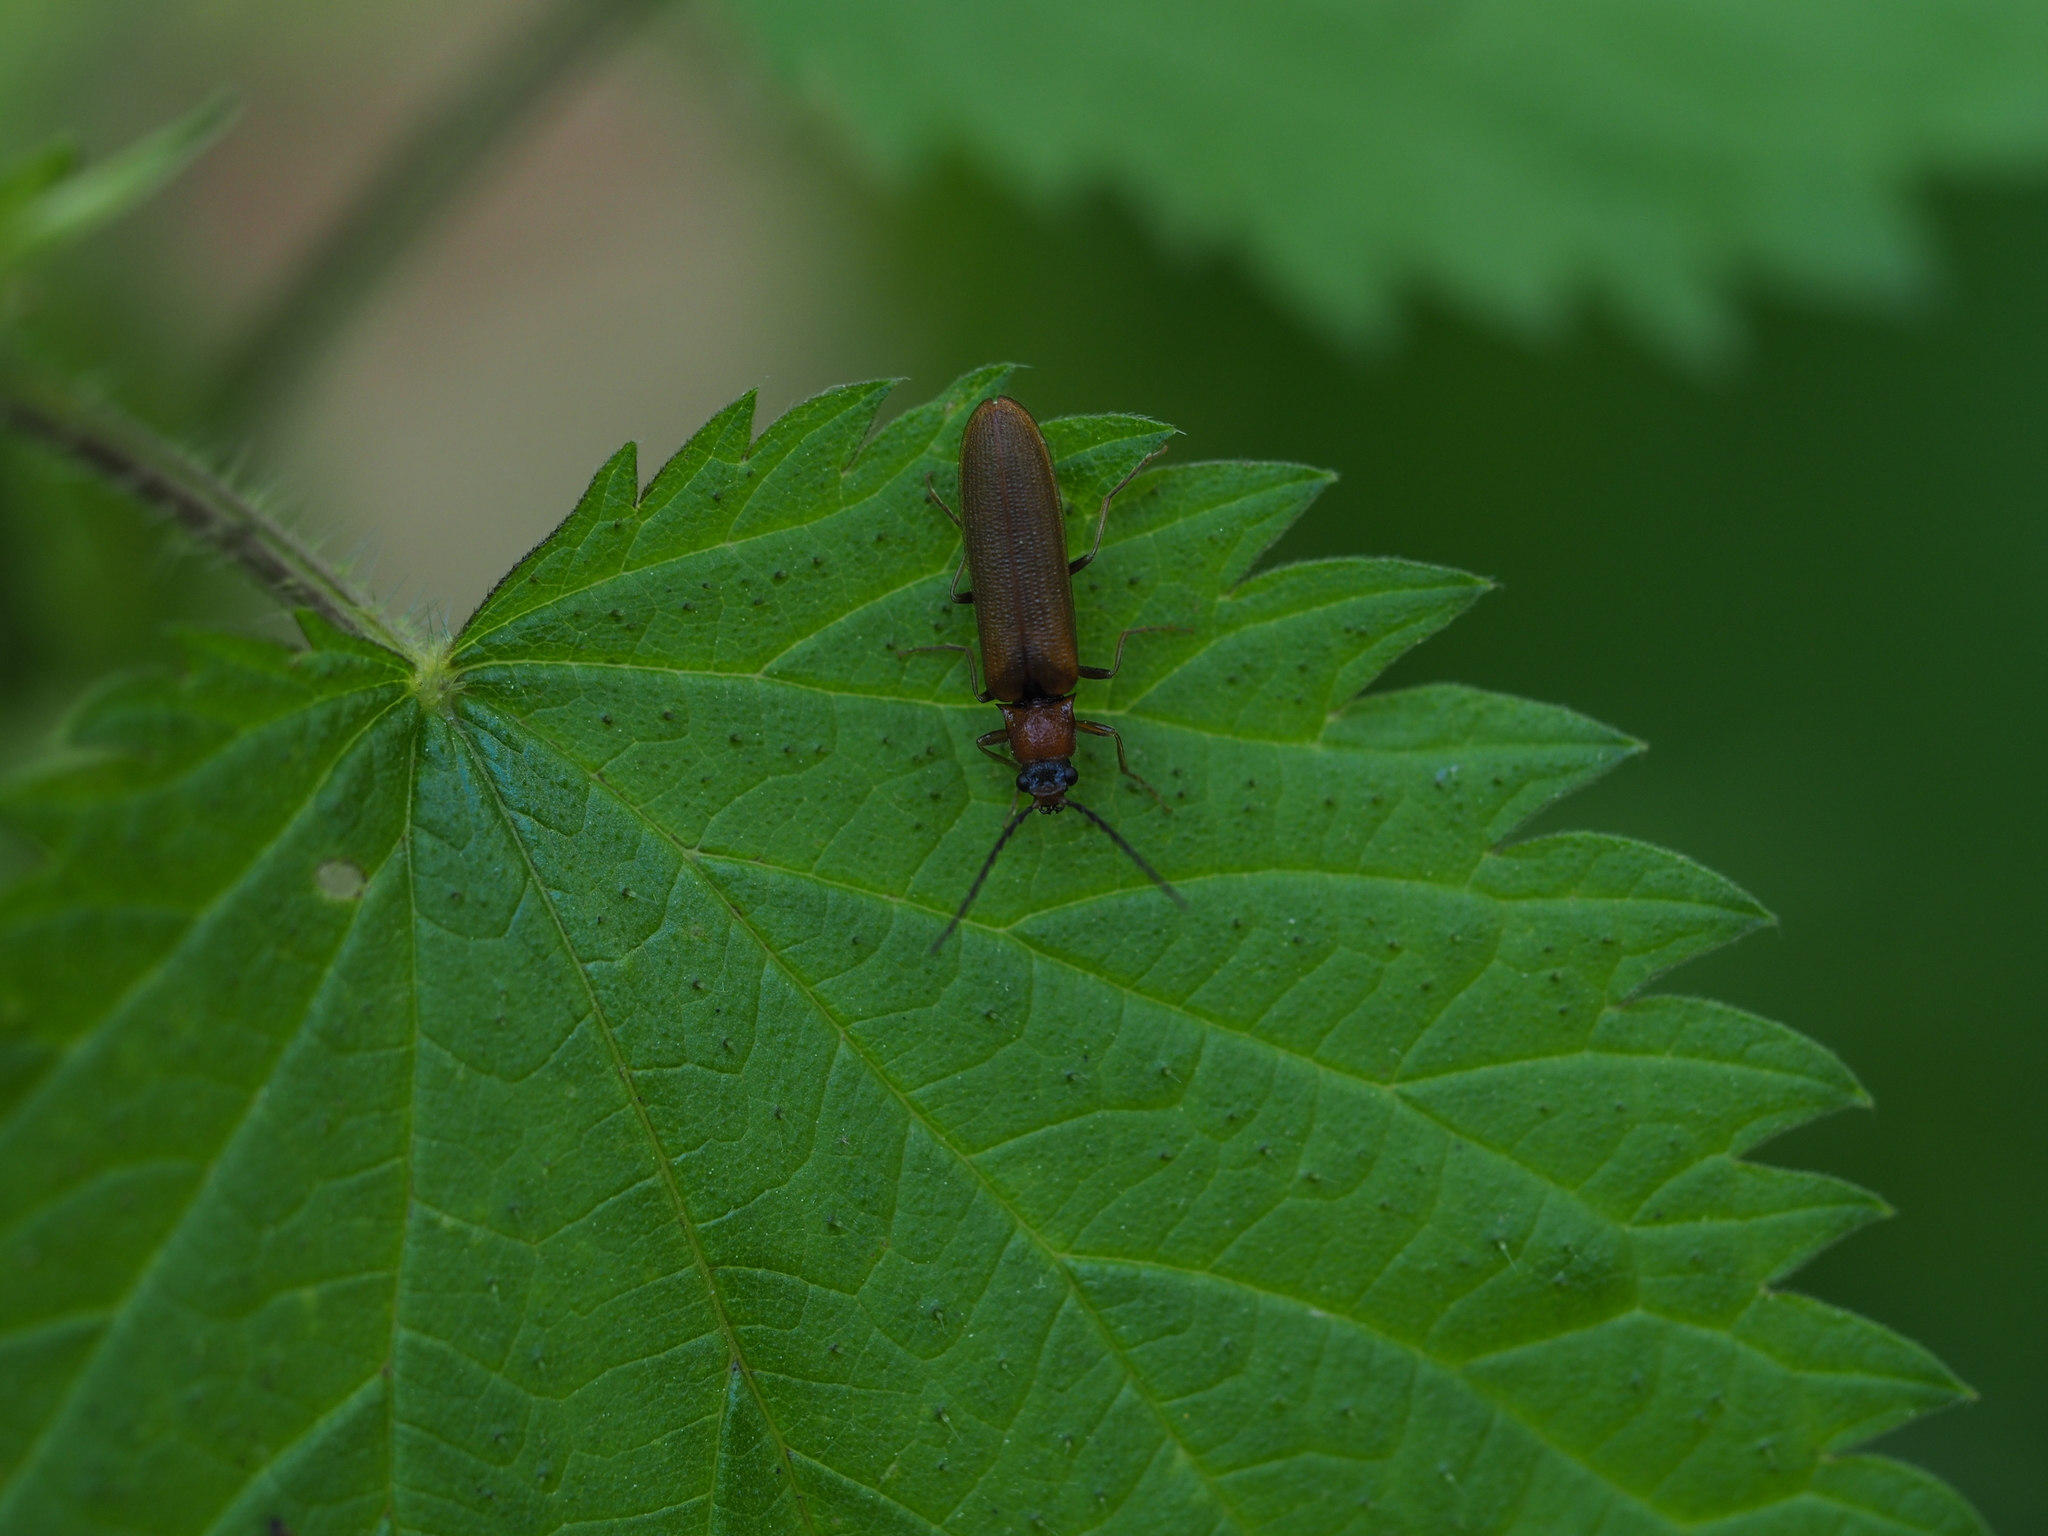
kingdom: Animalia
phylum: Arthropoda
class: Insecta
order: Coleoptera
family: Elateridae
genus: Denticollis
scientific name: Denticollis linearis
